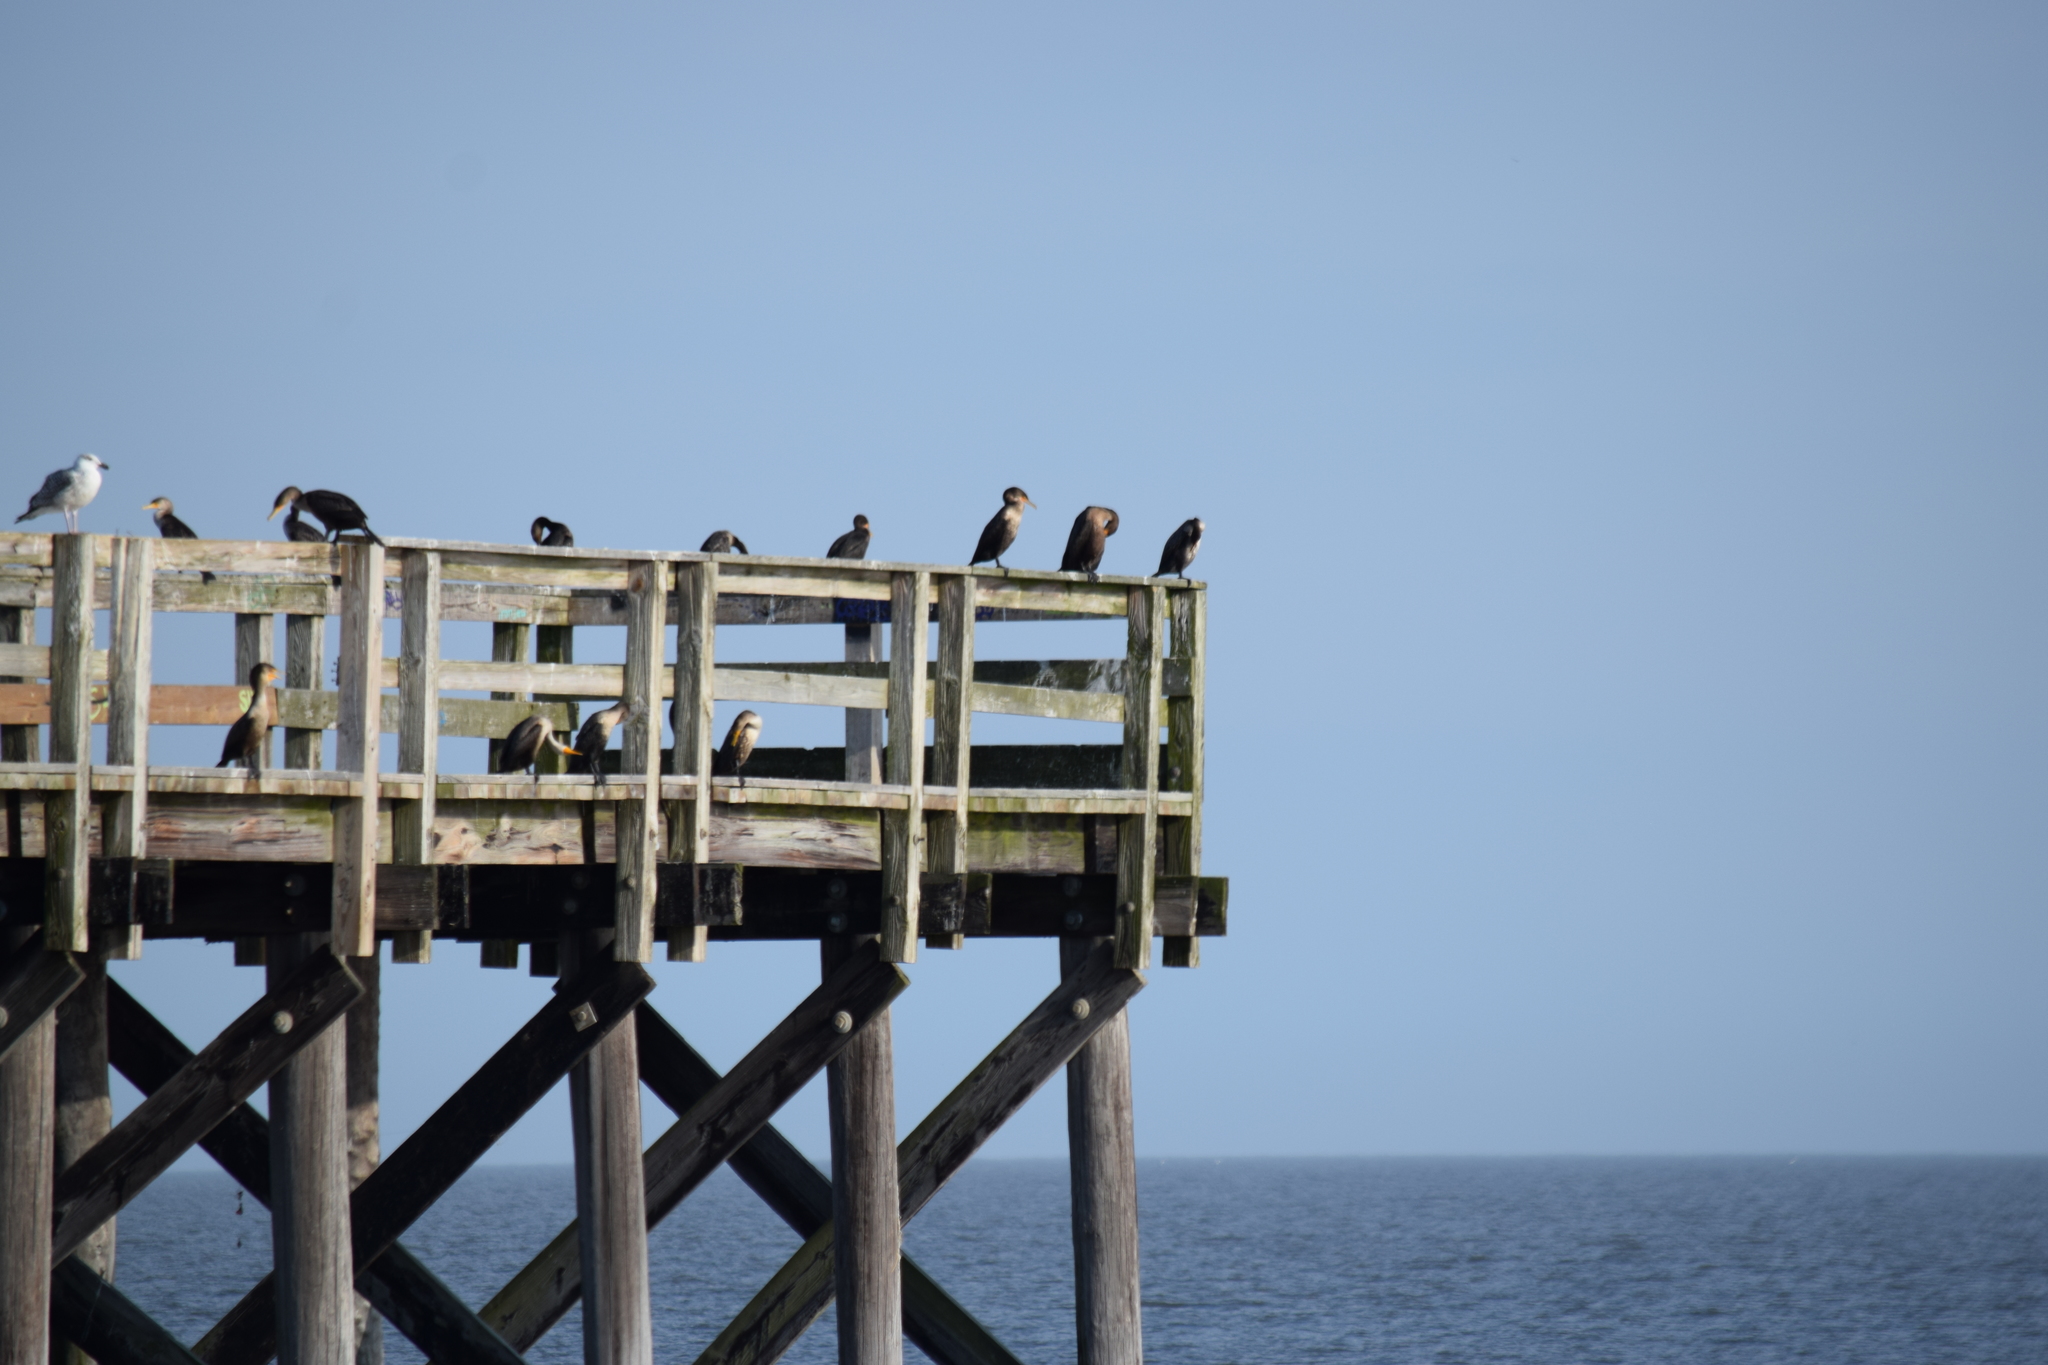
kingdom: Animalia
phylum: Chordata
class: Aves
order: Suliformes
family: Phalacrocoracidae
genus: Phalacrocorax
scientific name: Phalacrocorax auritus
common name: Double-crested cormorant
